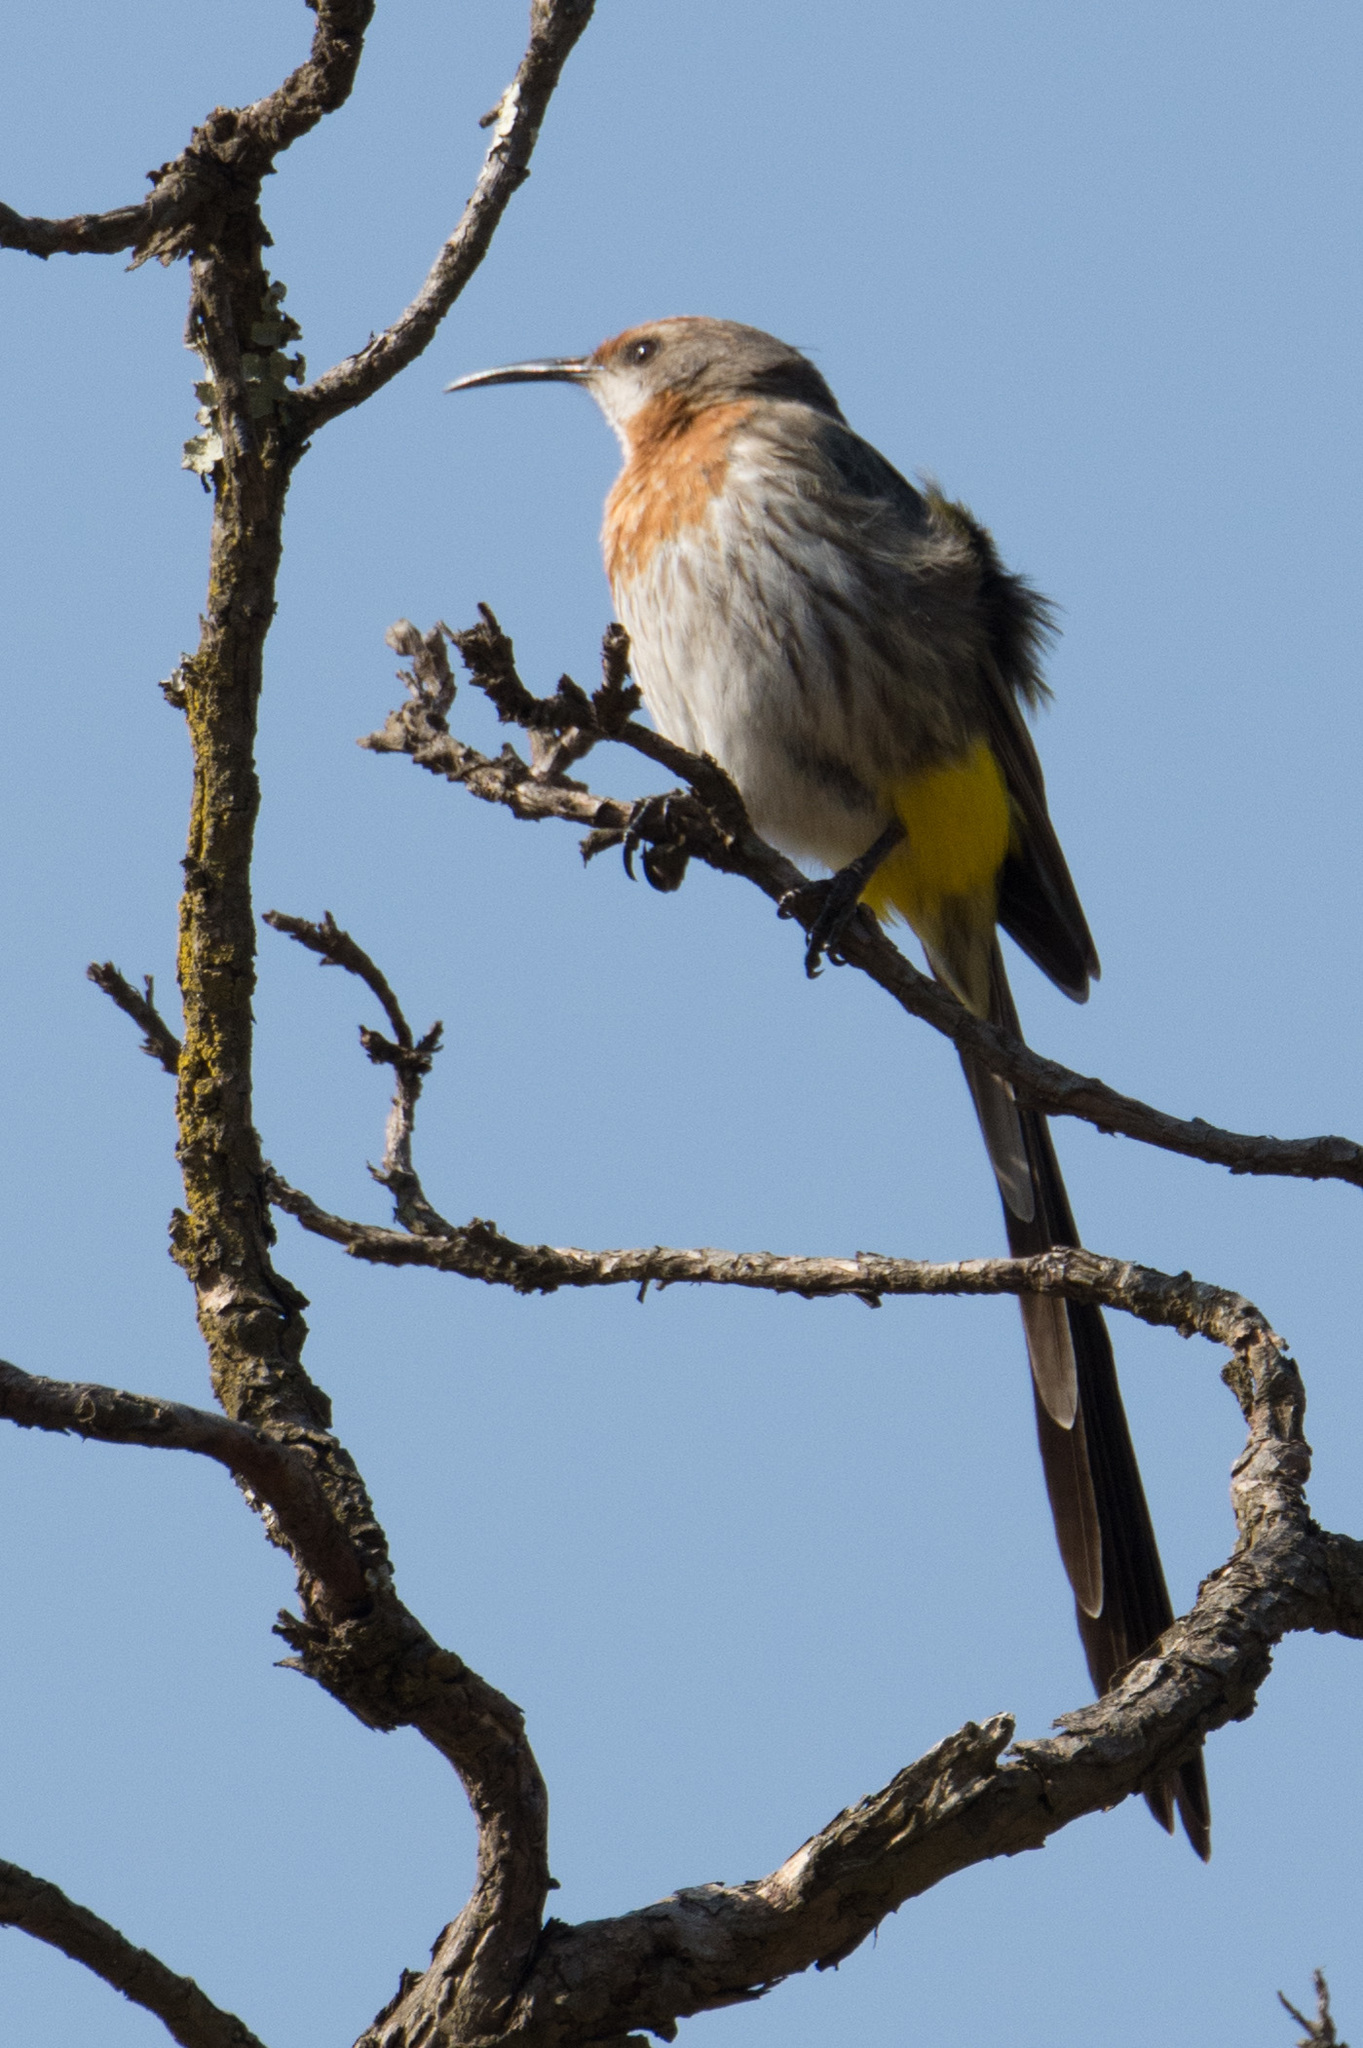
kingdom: Animalia
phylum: Chordata
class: Aves
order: Passeriformes
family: Promeropidae
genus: Promerops
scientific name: Promerops gurneyi
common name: Gurney's sugarbird
